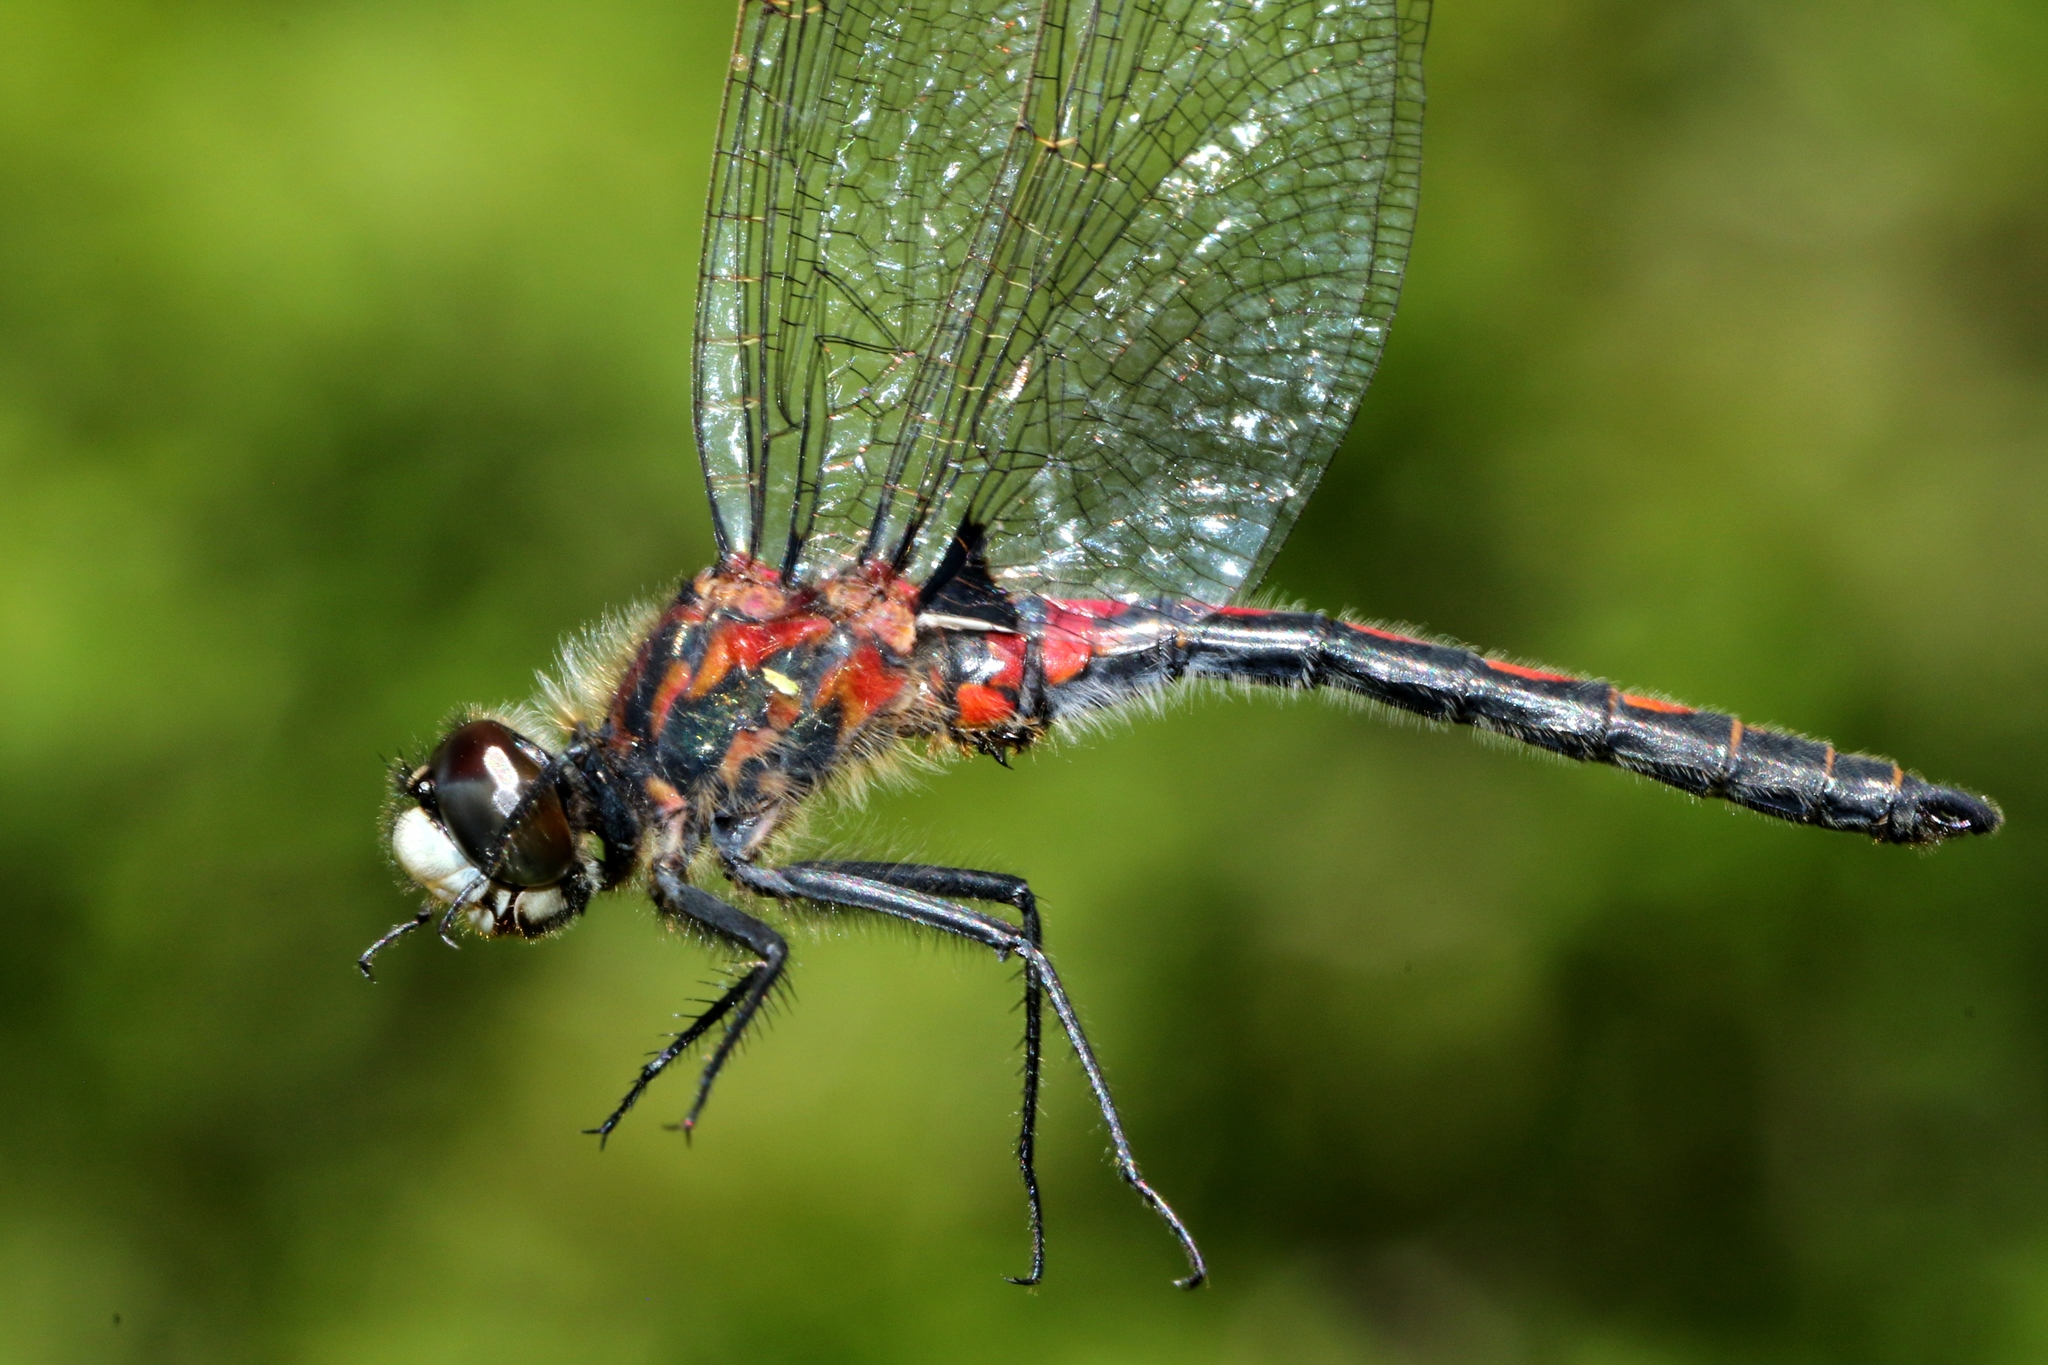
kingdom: Animalia
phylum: Arthropoda
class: Insecta
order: Odonata
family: Libellulidae
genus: Leucorrhinia
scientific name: Leucorrhinia hudsonica
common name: Hudsonian whiteface
